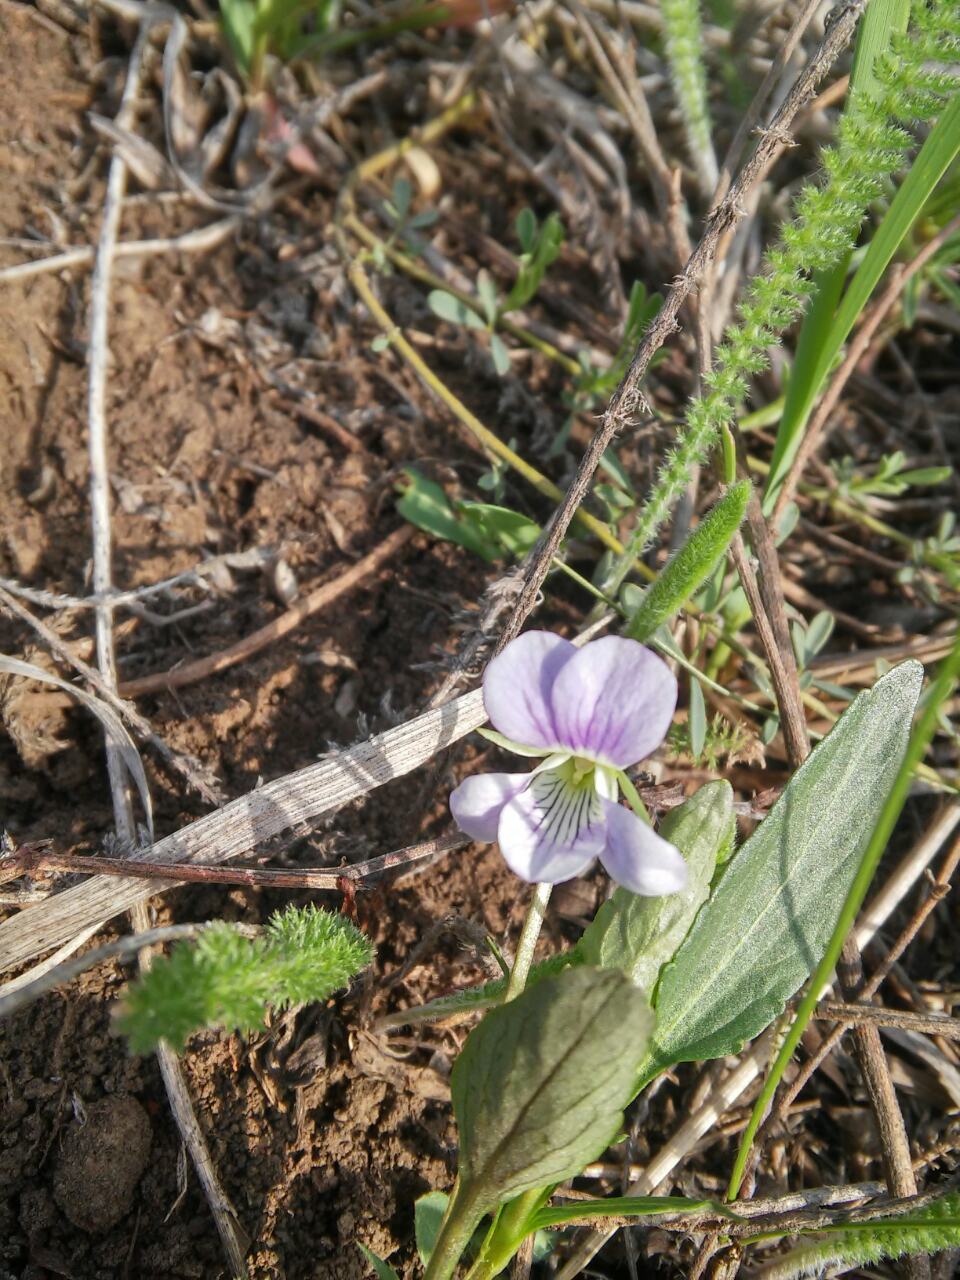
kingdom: Plantae
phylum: Tracheophyta
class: Magnoliopsida
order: Malpighiales
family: Violaceae
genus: Viola
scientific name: Viola pumila
